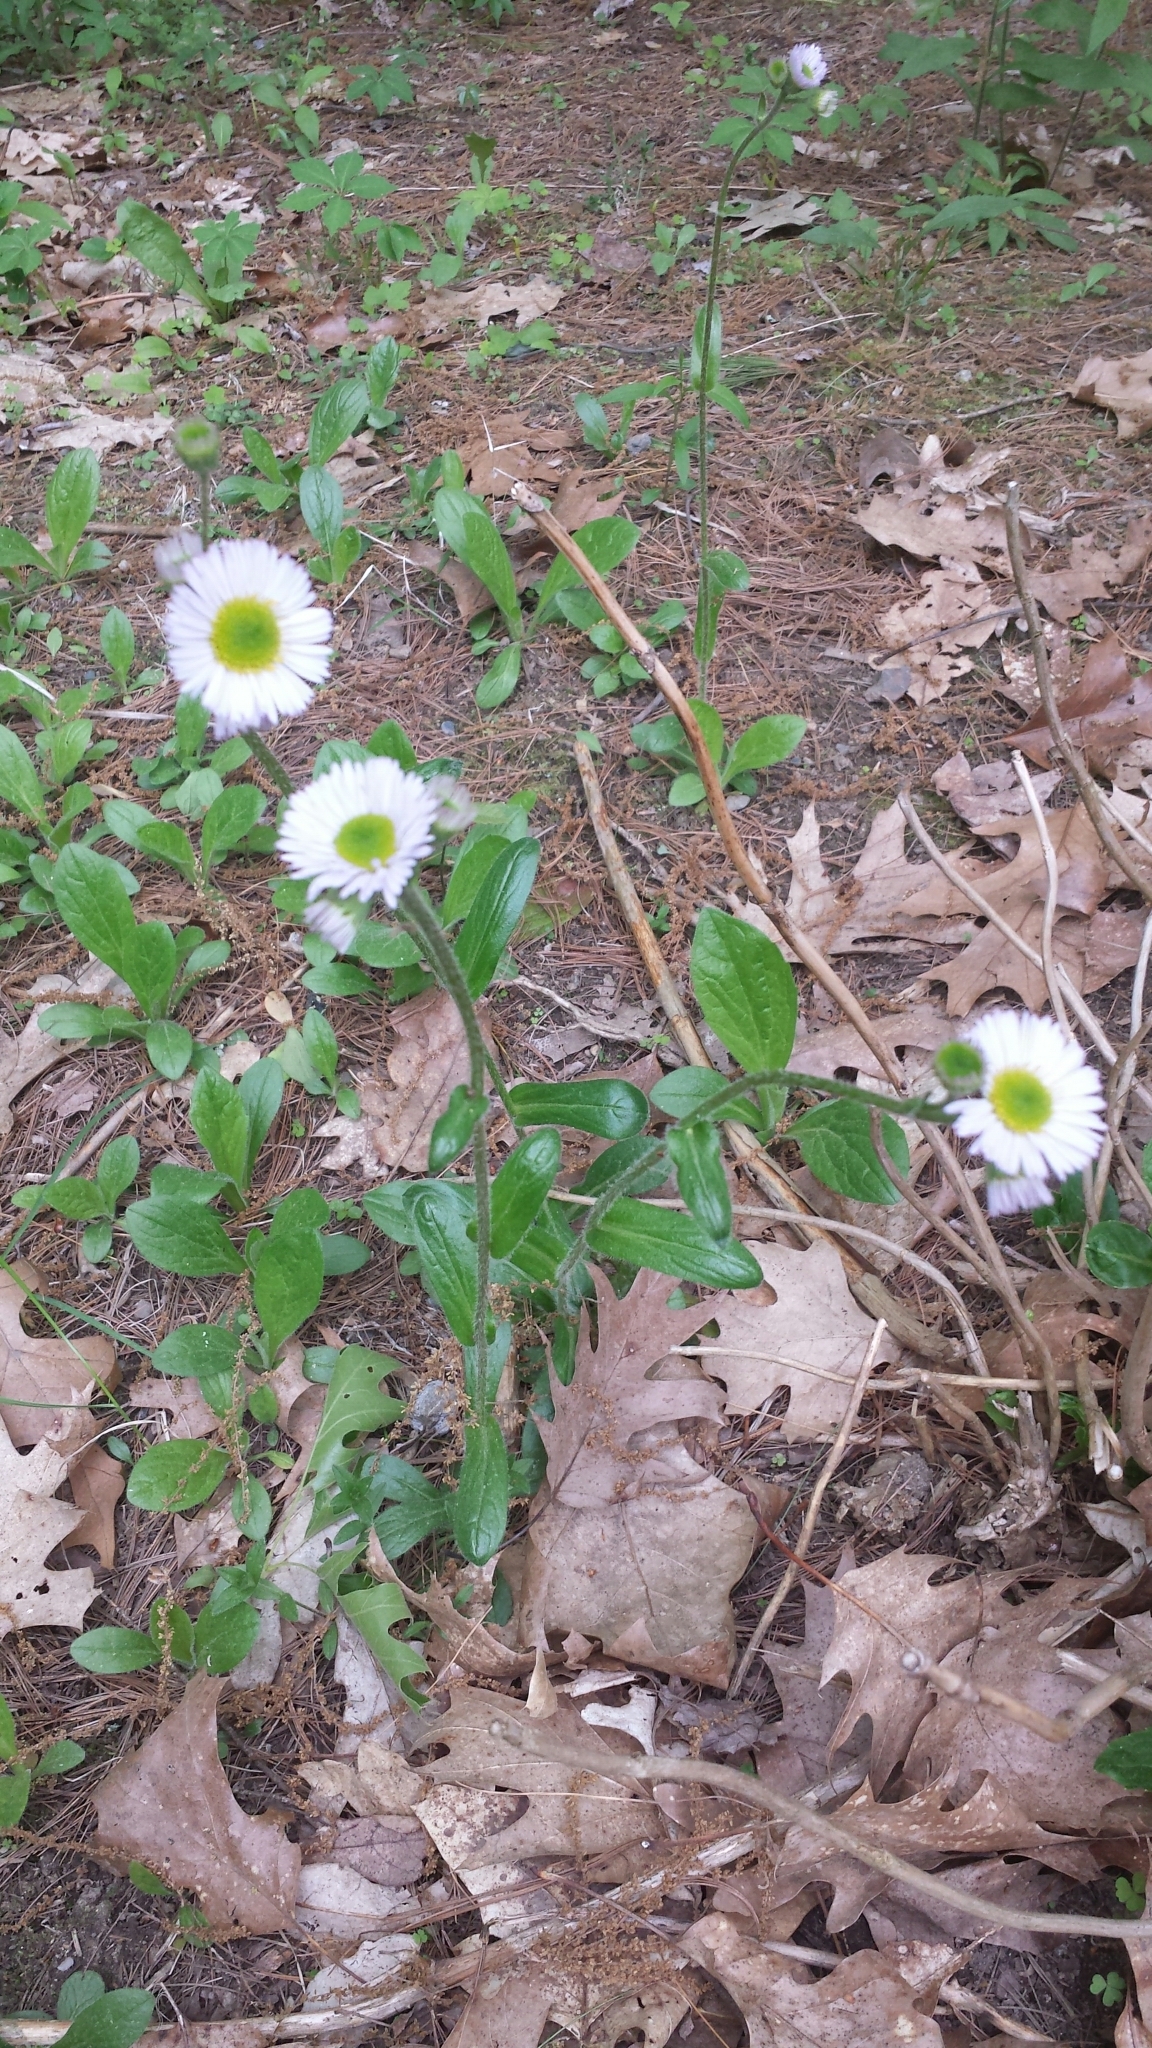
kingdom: Plantae
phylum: Tracheophyta
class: Magnoliopsida
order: Asterales
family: Asteraceae
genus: Erigeron
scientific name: Erigeron pulchellus
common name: Hairy fleabane
